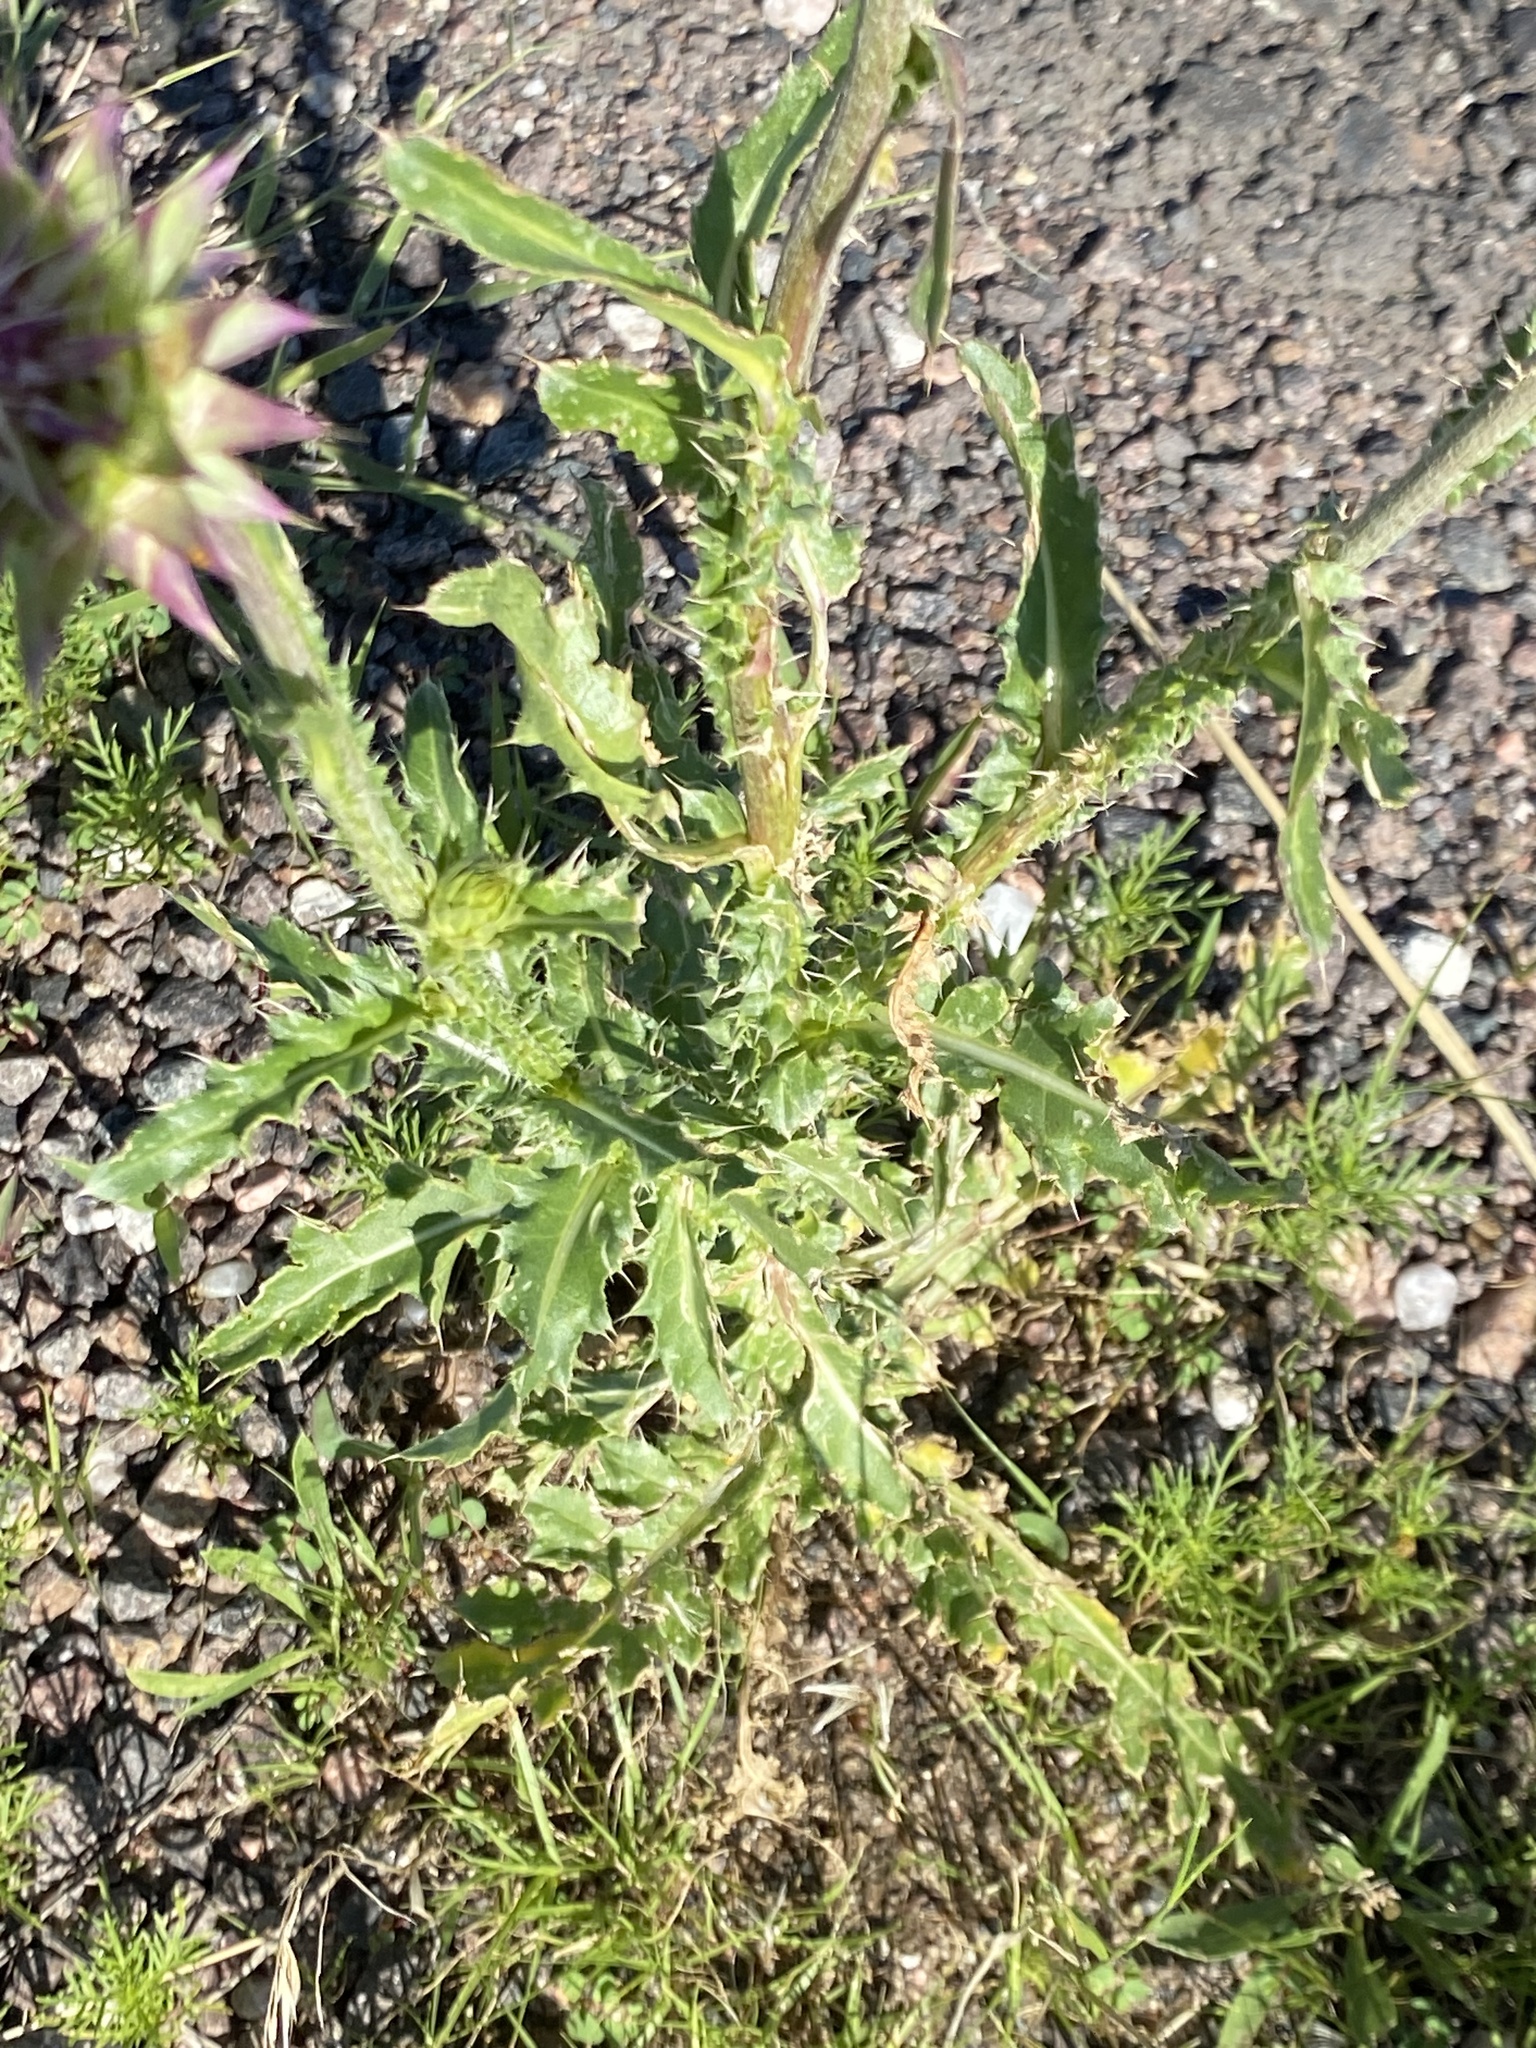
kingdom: Plantae
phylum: Tracheophyta
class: Magnoliopsida
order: Asterales
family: Asteraceae
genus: Carduus
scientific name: Carduus nutans
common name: Musk thistle
